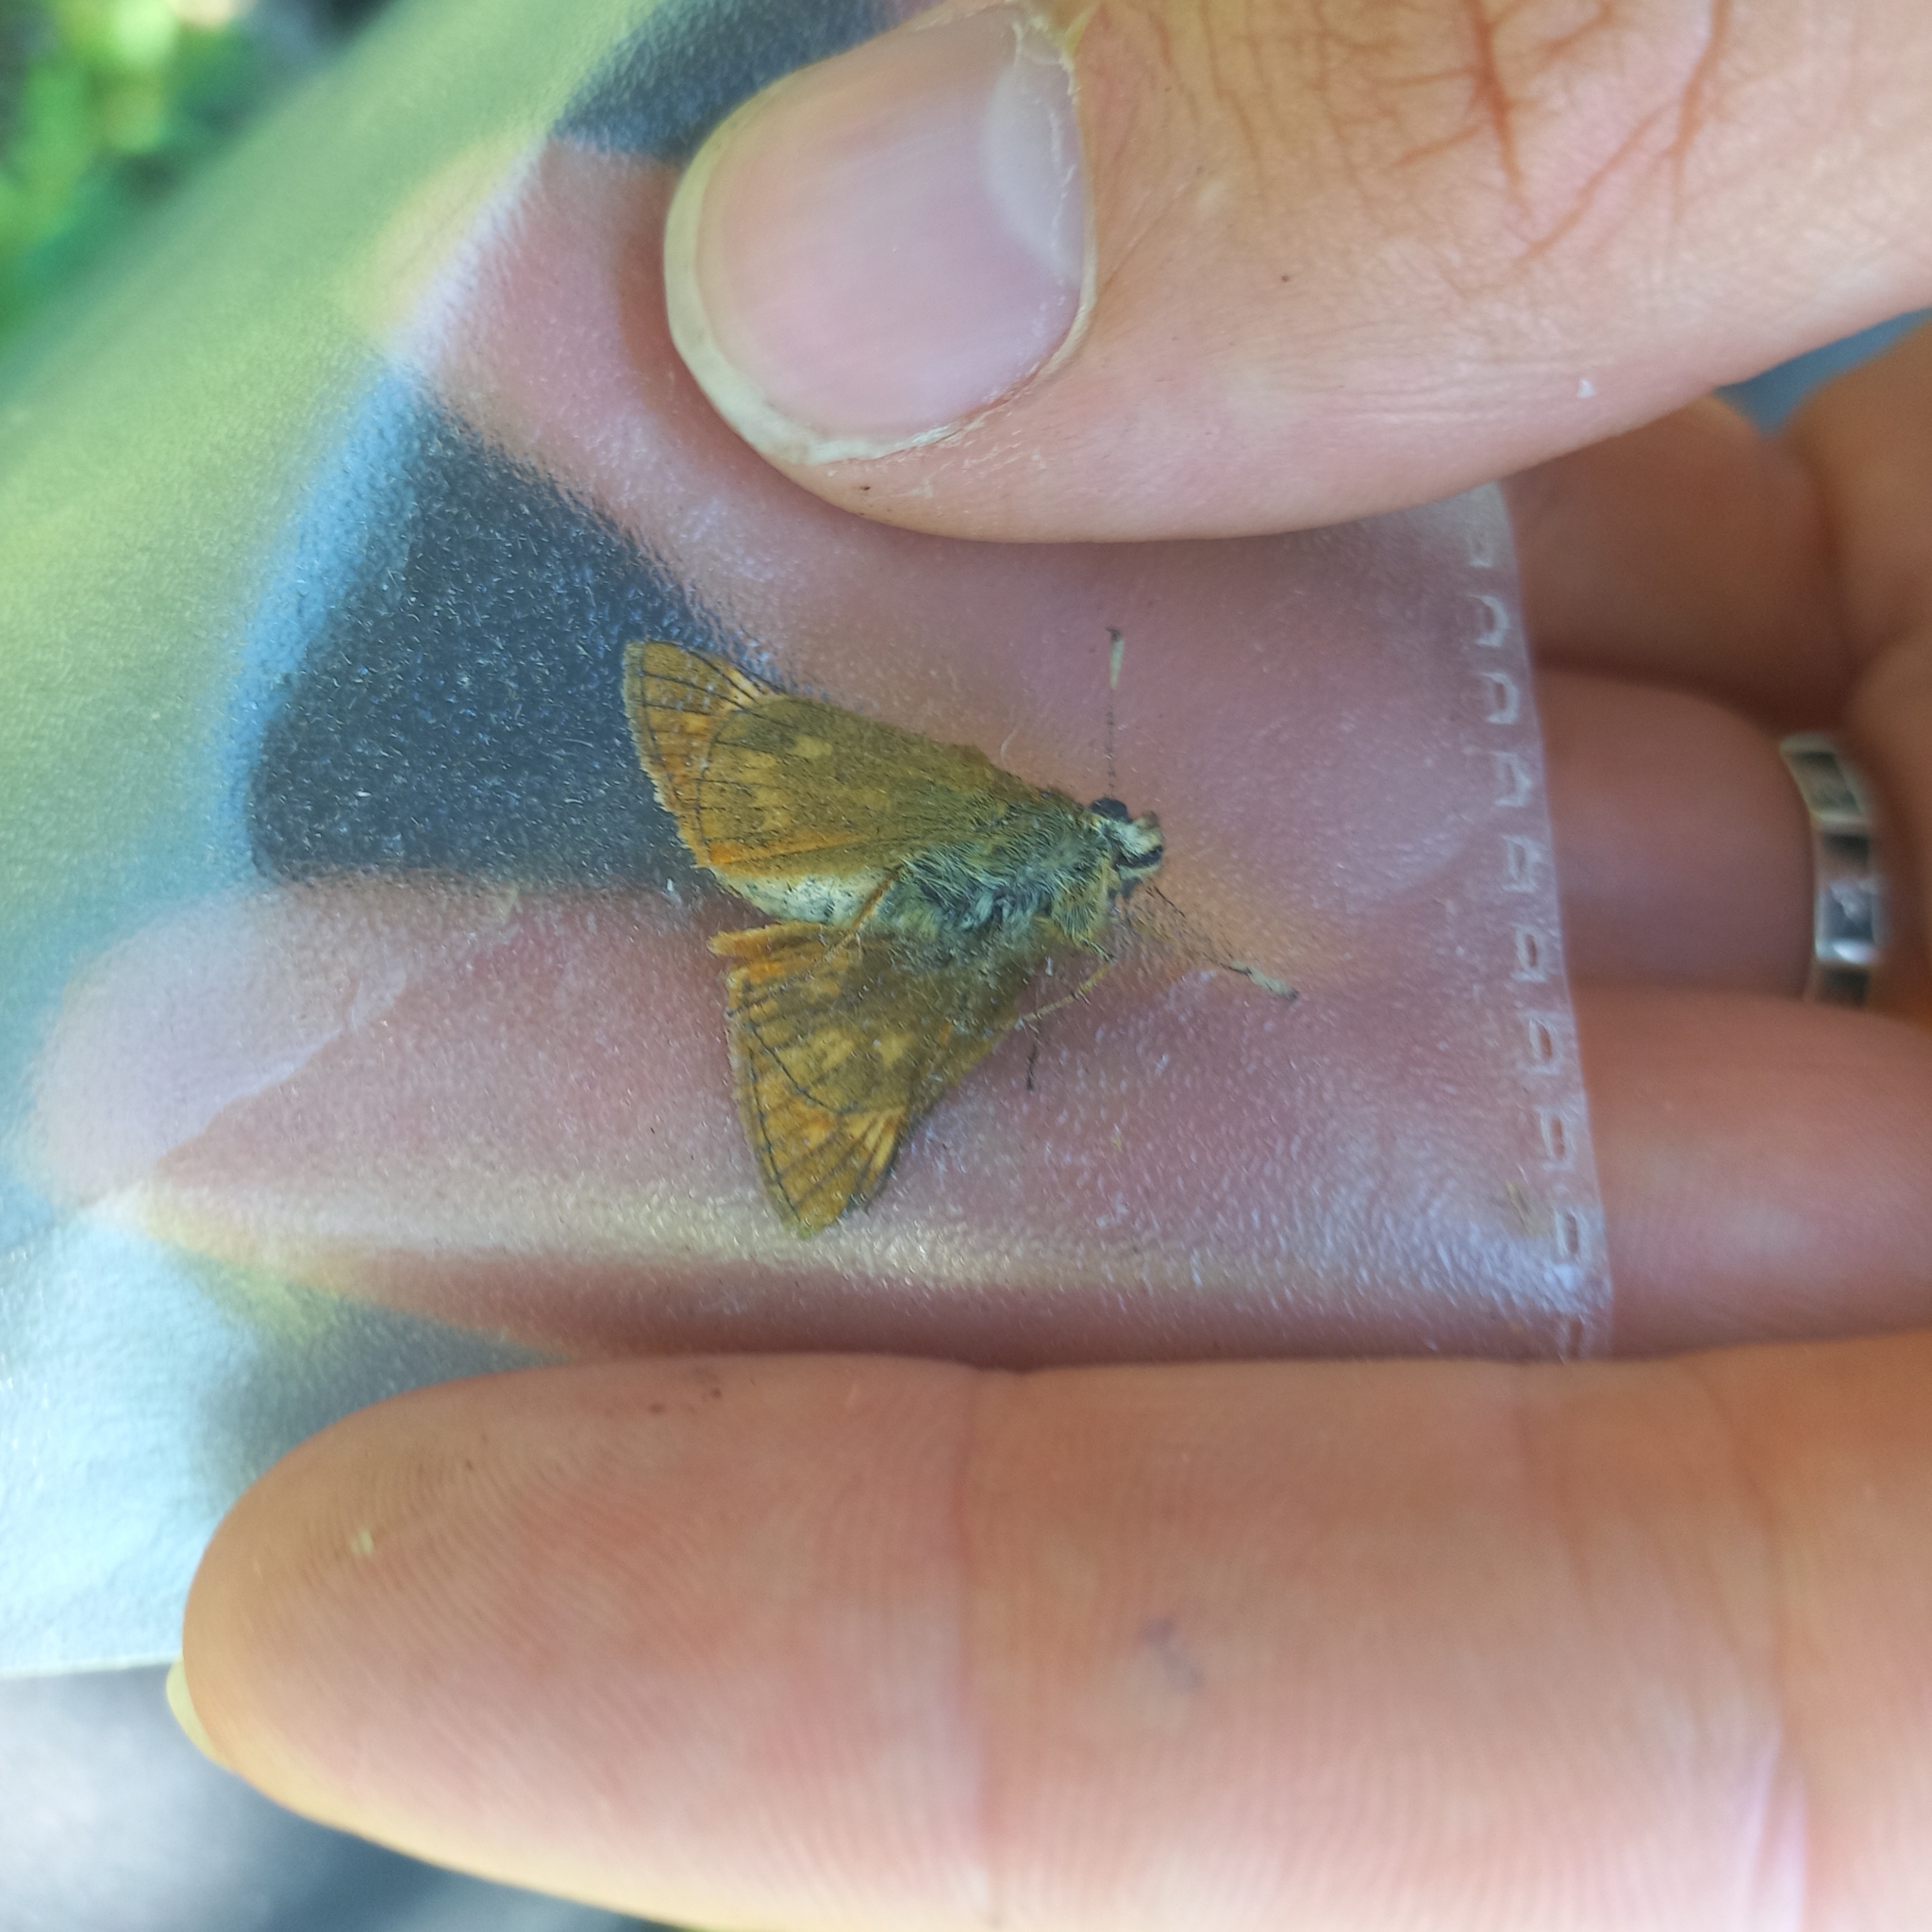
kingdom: Animalia
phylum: Arthropoda
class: Insecta
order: Lepidoptera
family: Hesperiidae
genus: Ochlodes
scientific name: Ochlodes venata
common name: Large skipper
